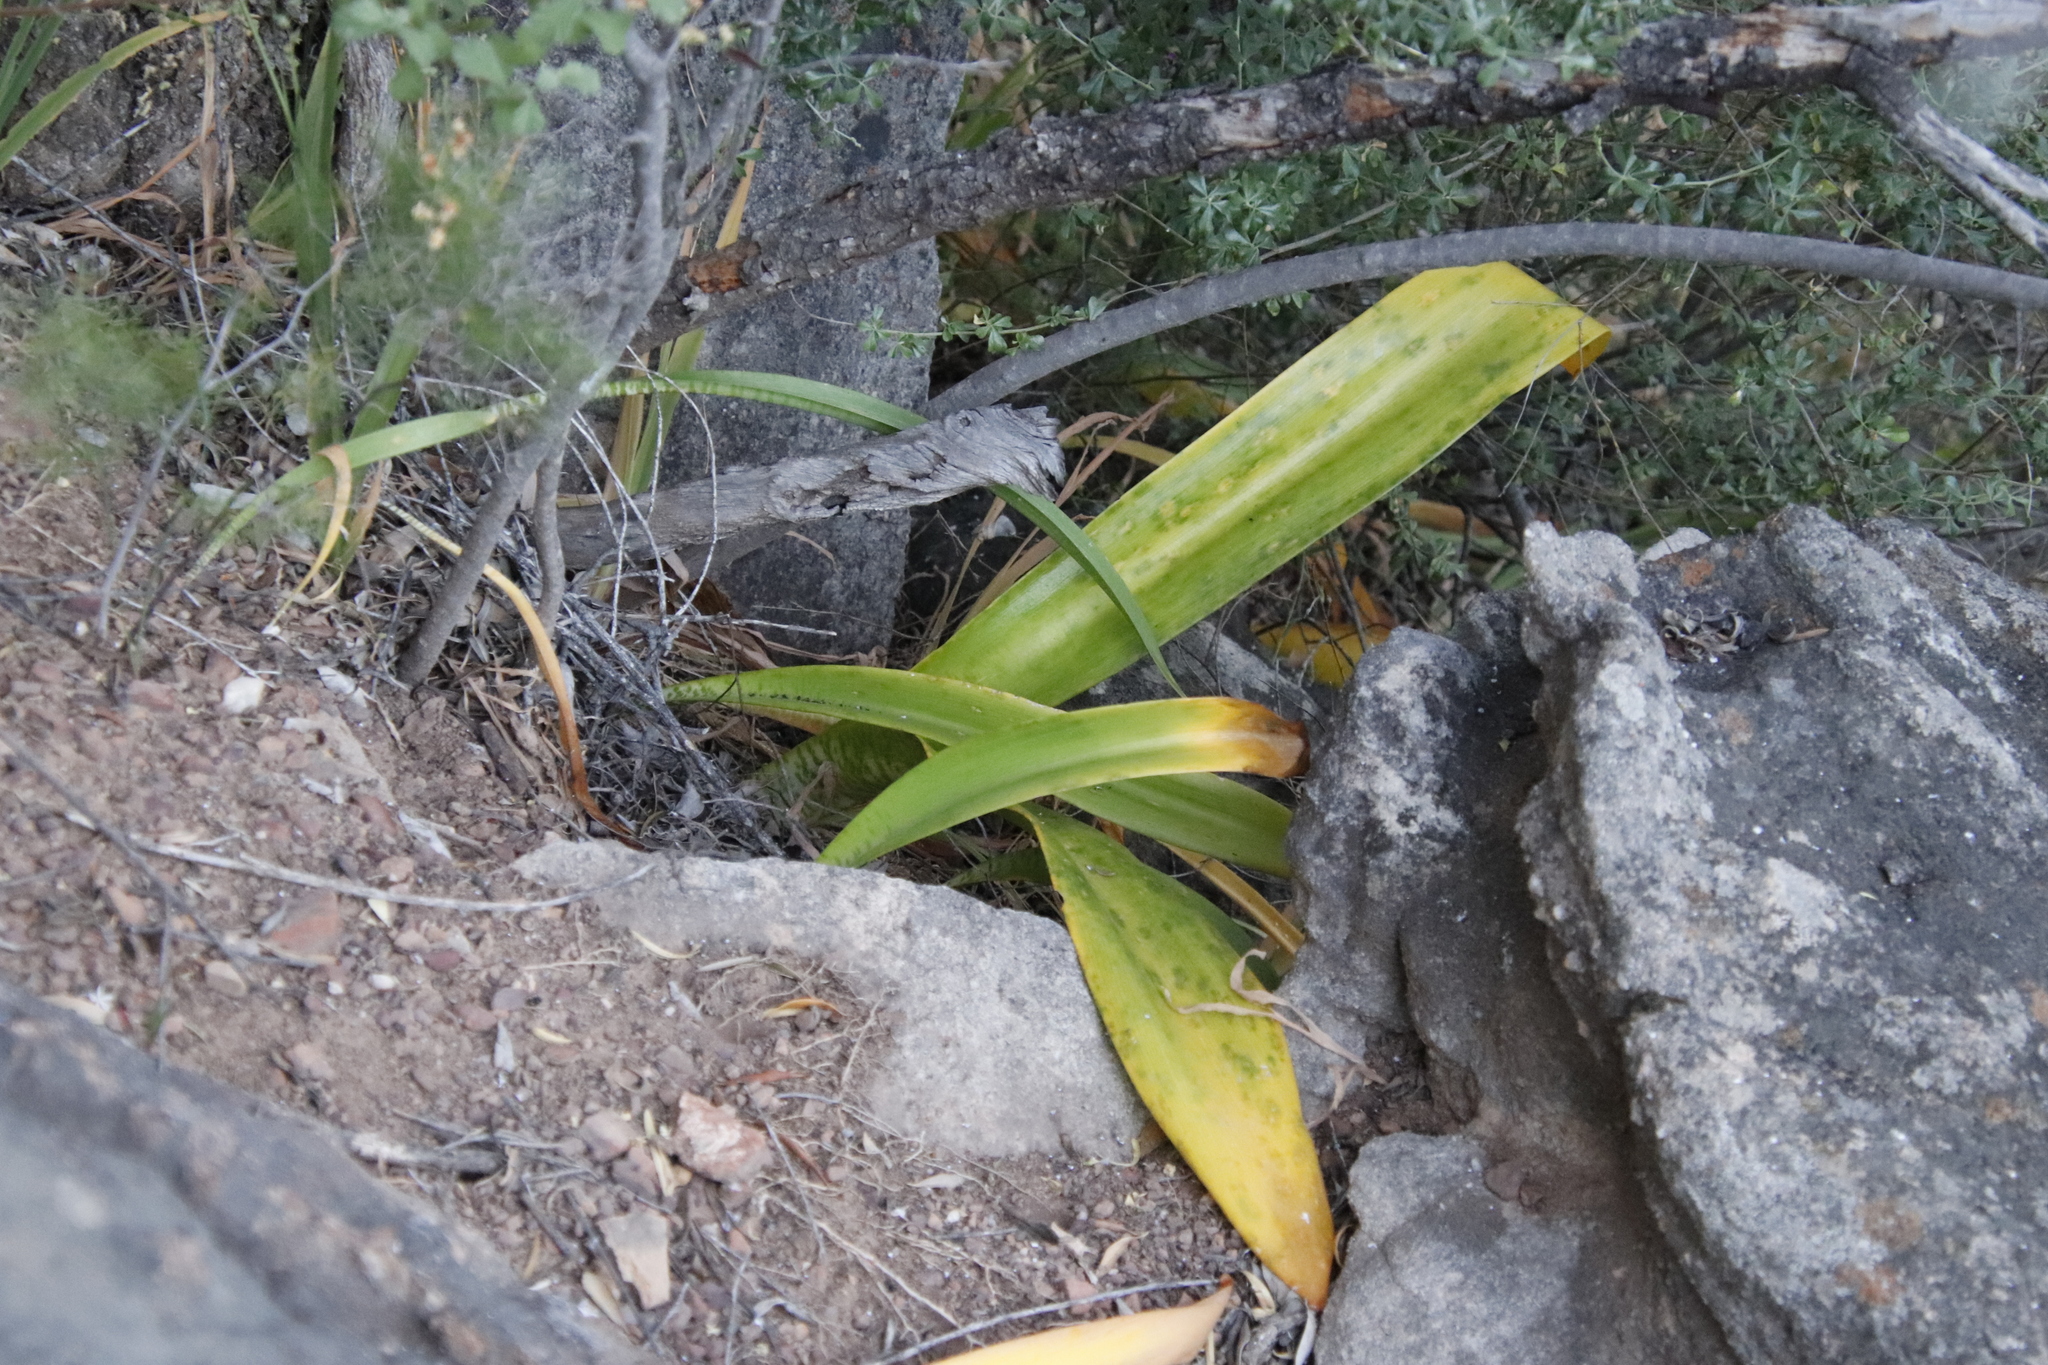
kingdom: Plantae
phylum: Tracheophyta
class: Liliopsida
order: Asparagales
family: Amaryllidaceae
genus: Haemanthus
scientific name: Haemanthus coccineus
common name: Cape-tulip
